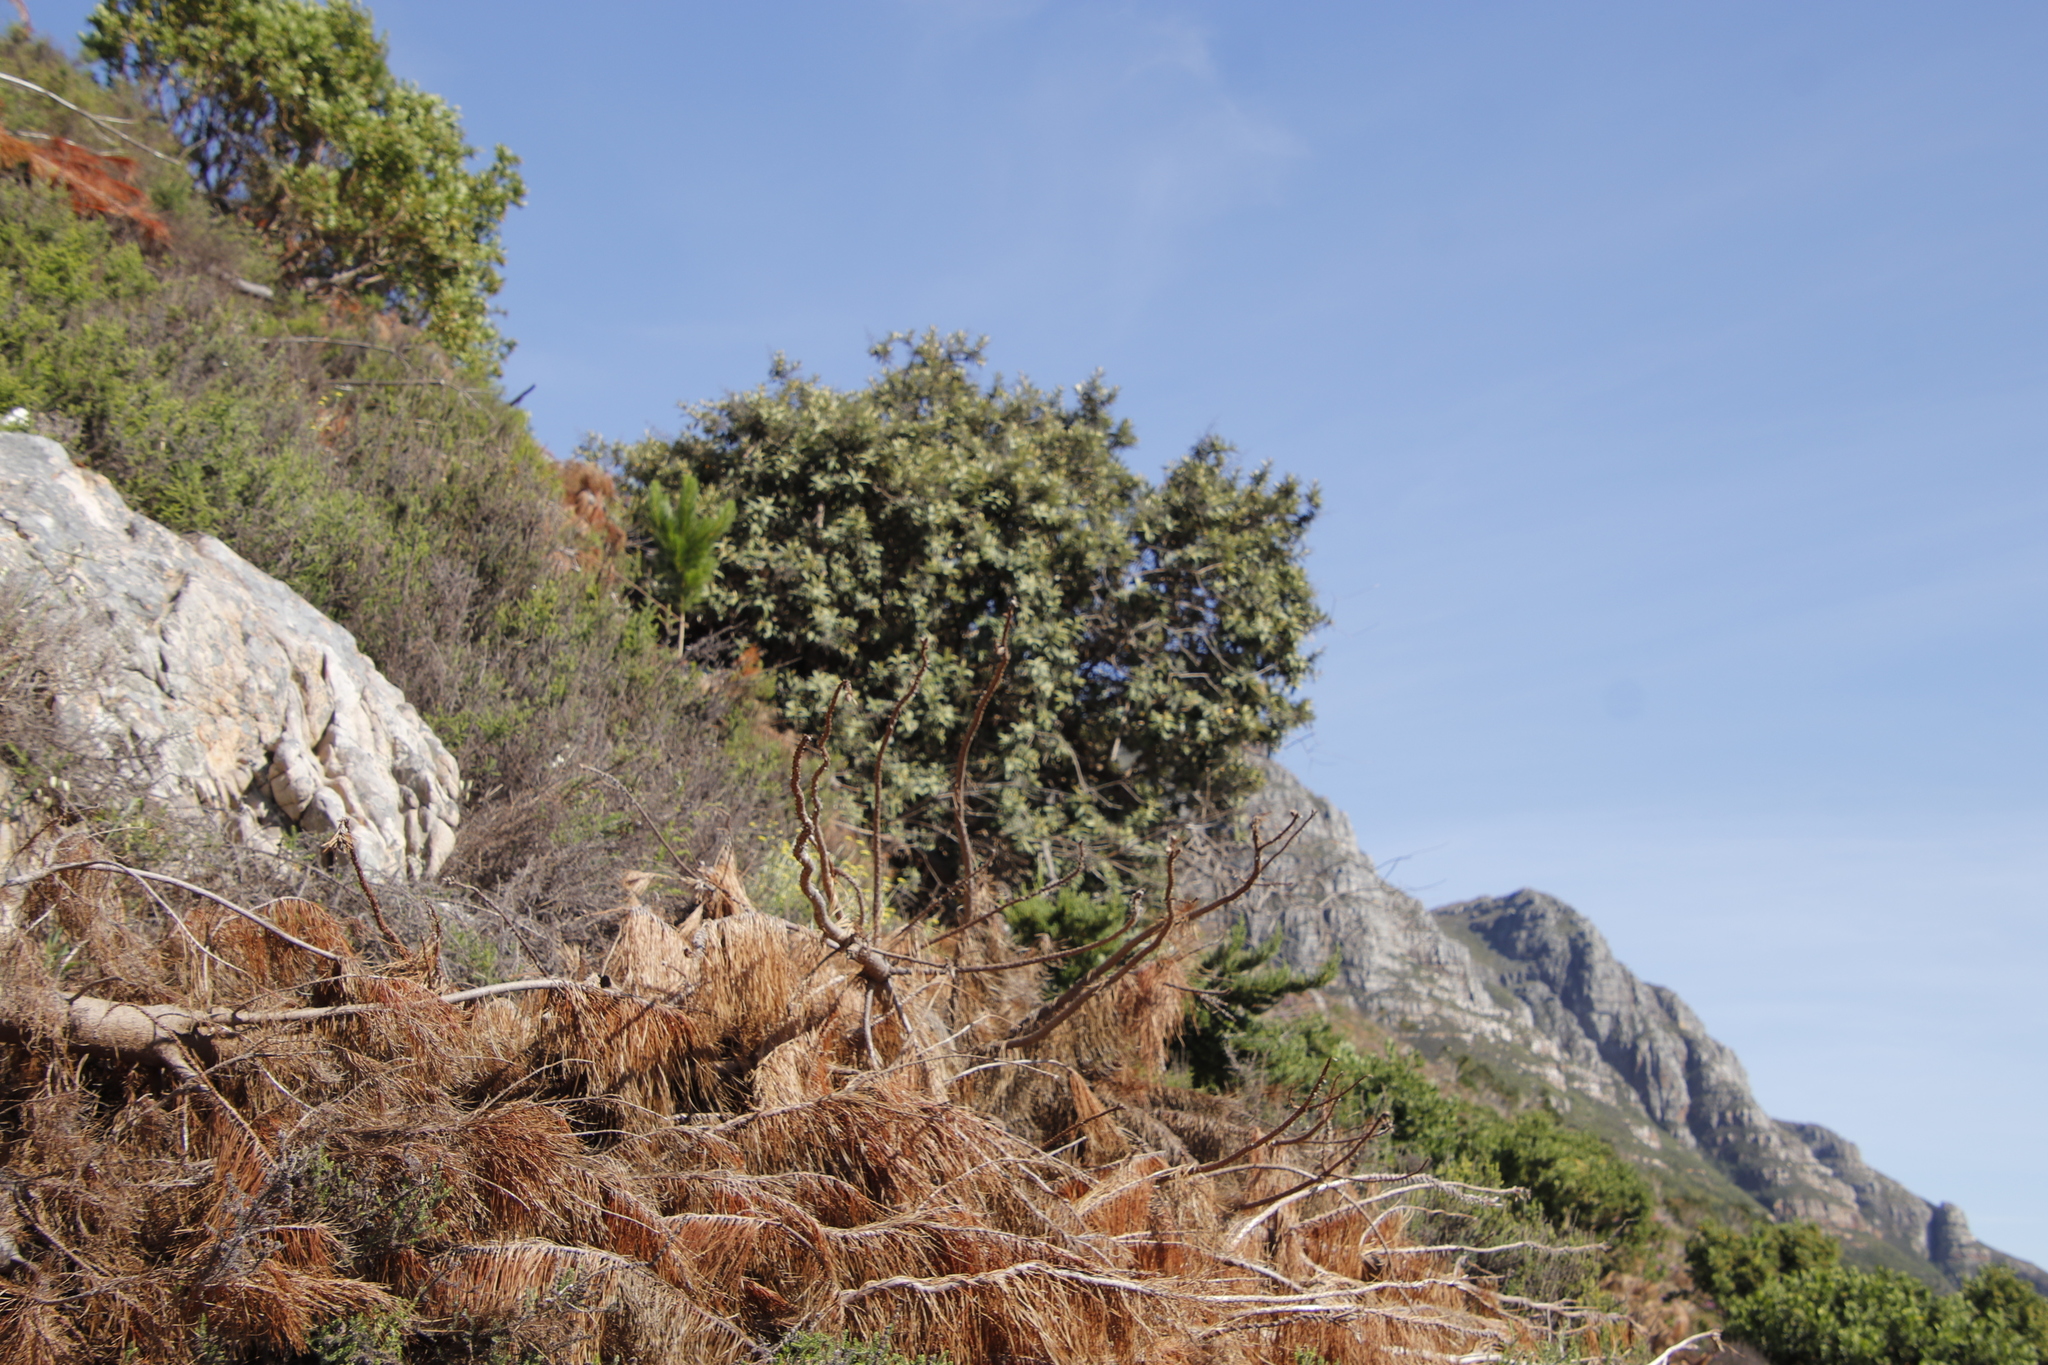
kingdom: Plantae
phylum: Tracheophyta
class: Magnoliopsida
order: Asterales
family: Asteraceae
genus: Tarchonanthus
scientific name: Tarchonanthus littoralis
